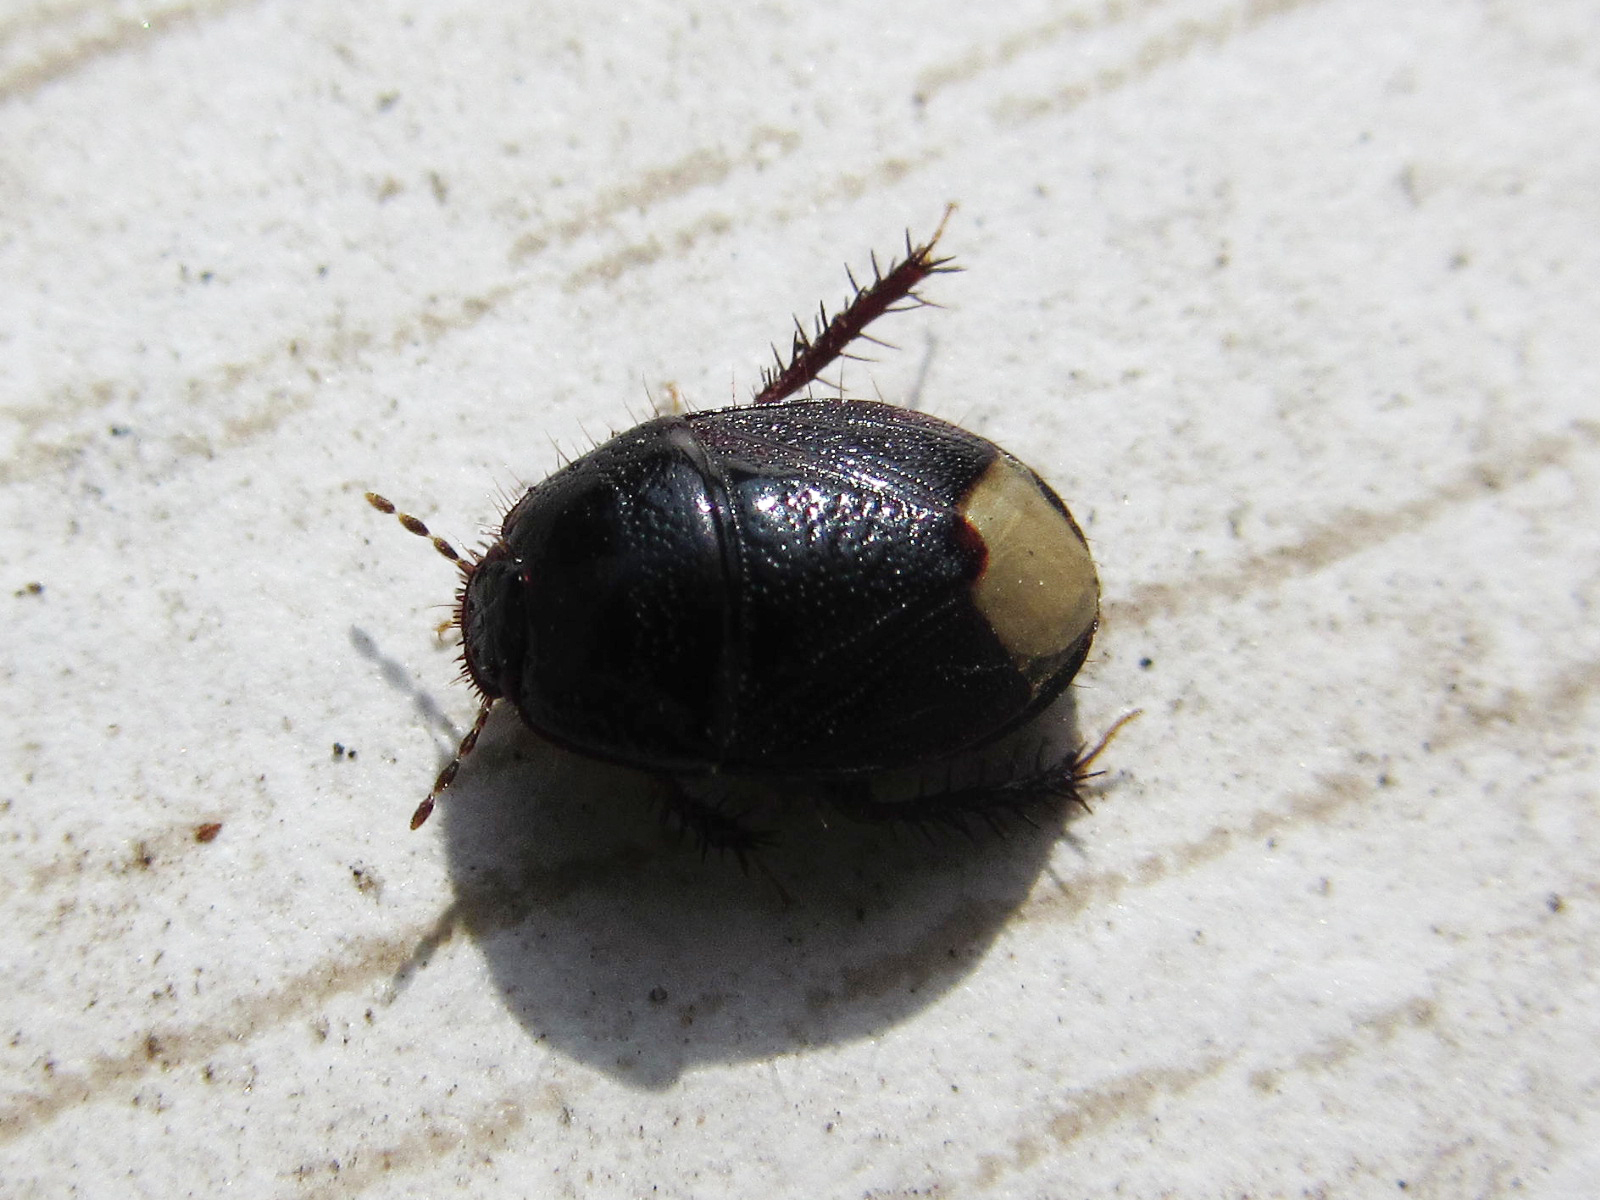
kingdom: Animalia
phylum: Arthropoda
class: Insecta
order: Hemiptera
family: Cydnidae
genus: Microporus
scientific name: Microporus nigrita
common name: Burrower bug
